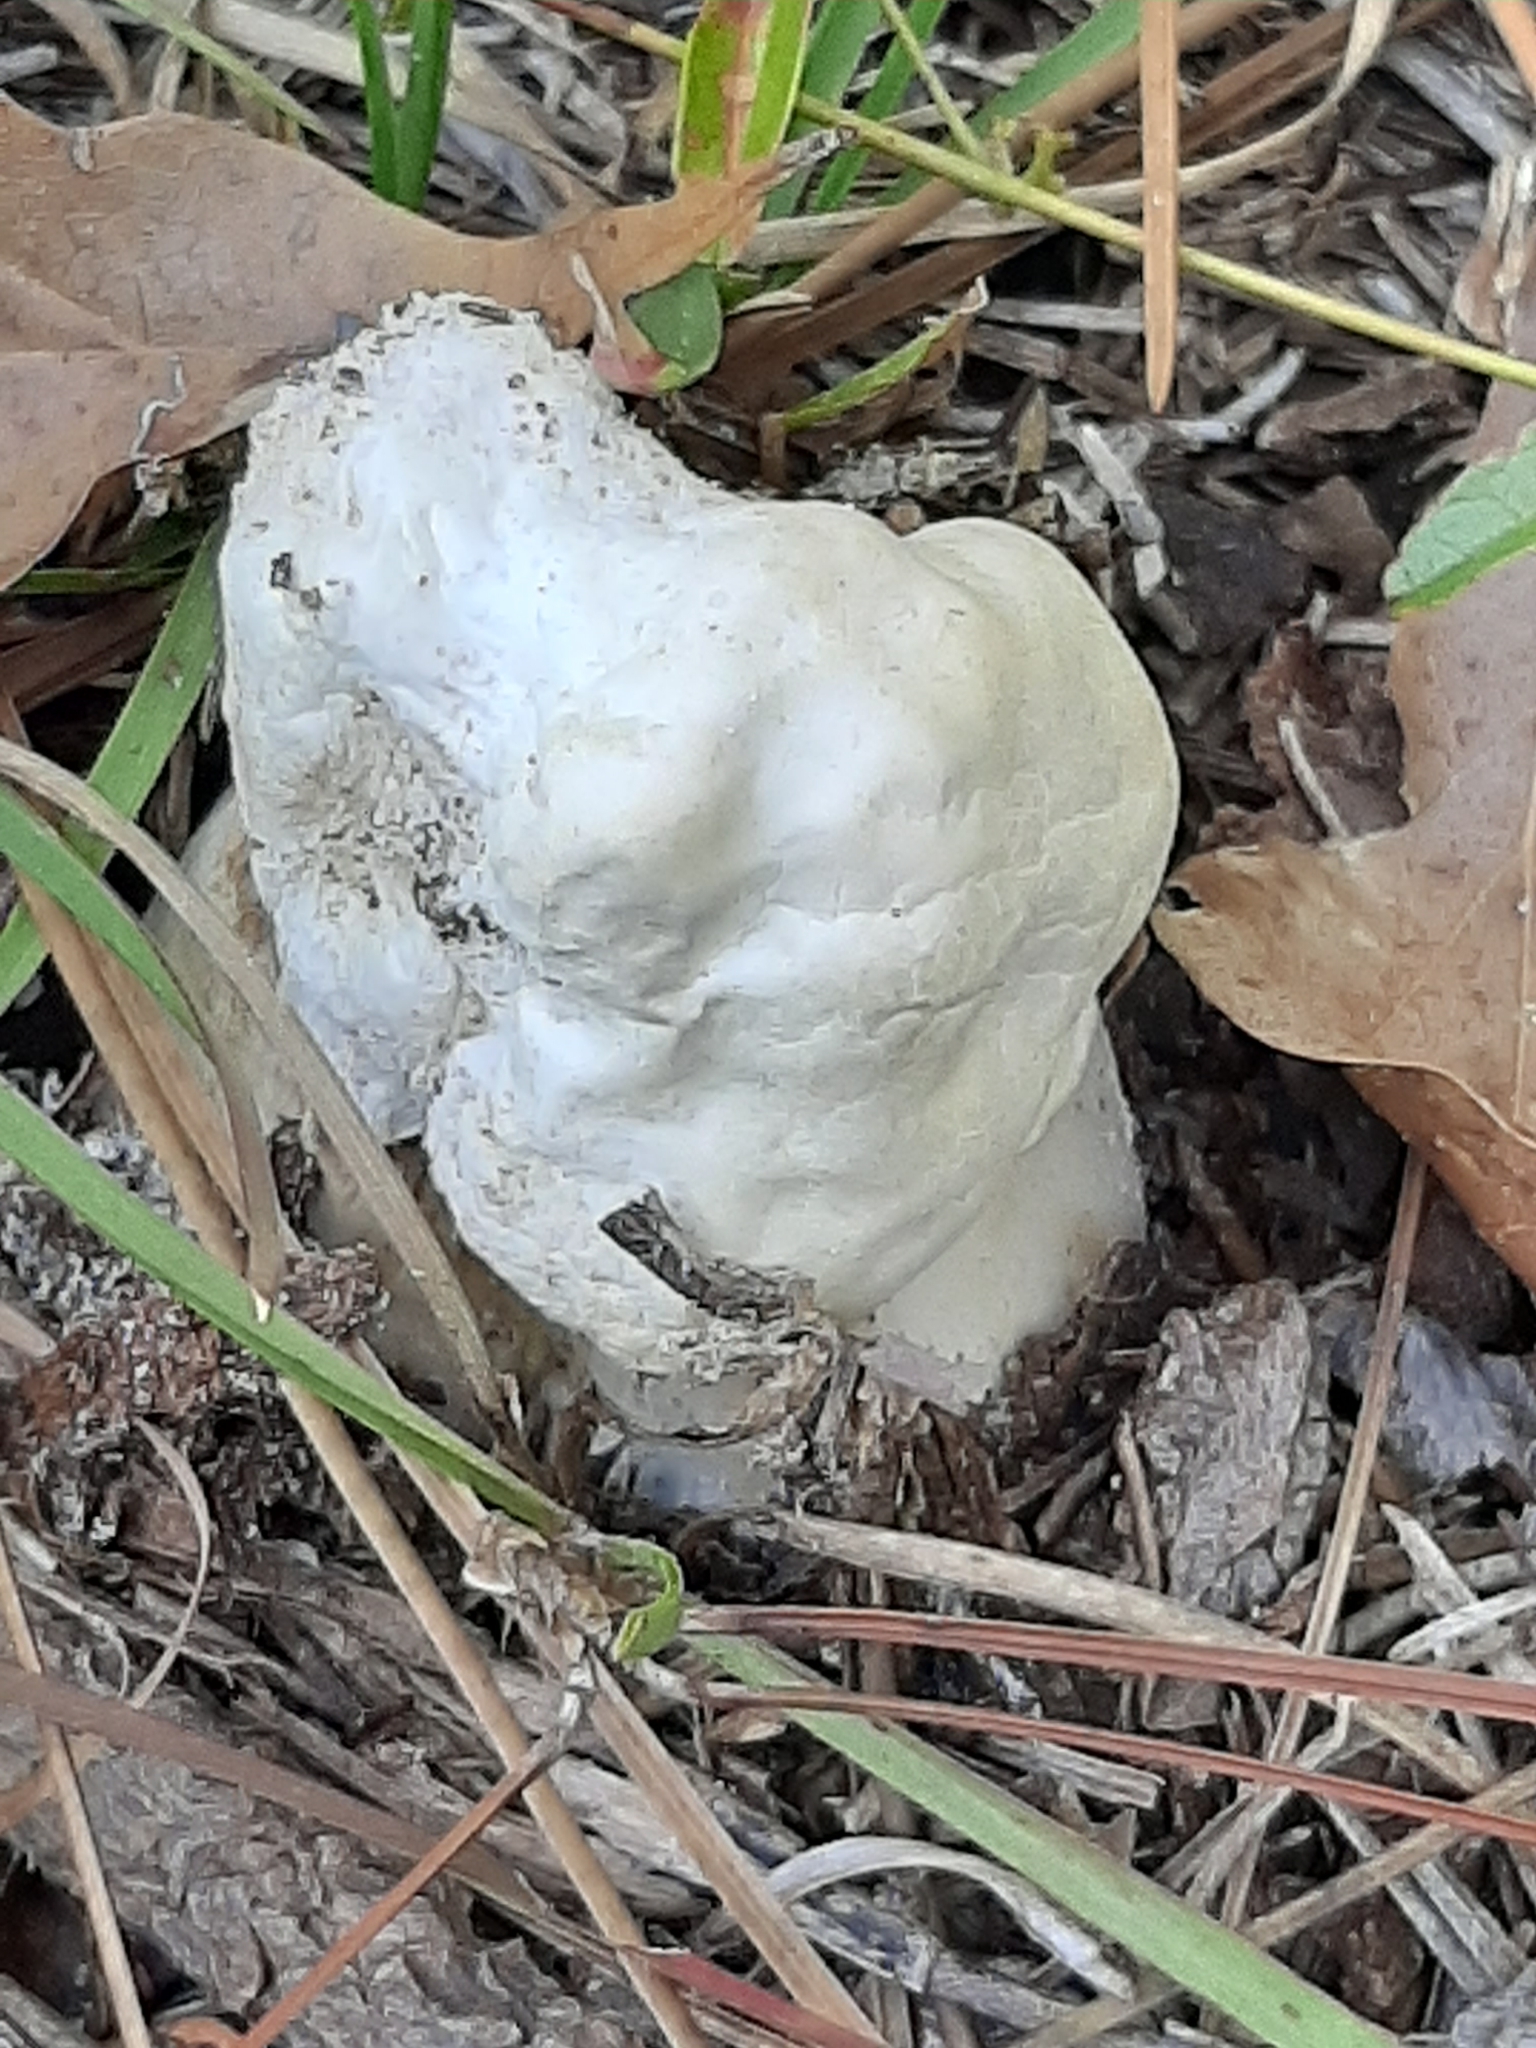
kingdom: Fungi
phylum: Basidiomycota
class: Agaricomycetes
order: Agaricales
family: Entolomataceae
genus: Entoloma
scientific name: Entoloma abortivum
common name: Aborted entoloma
